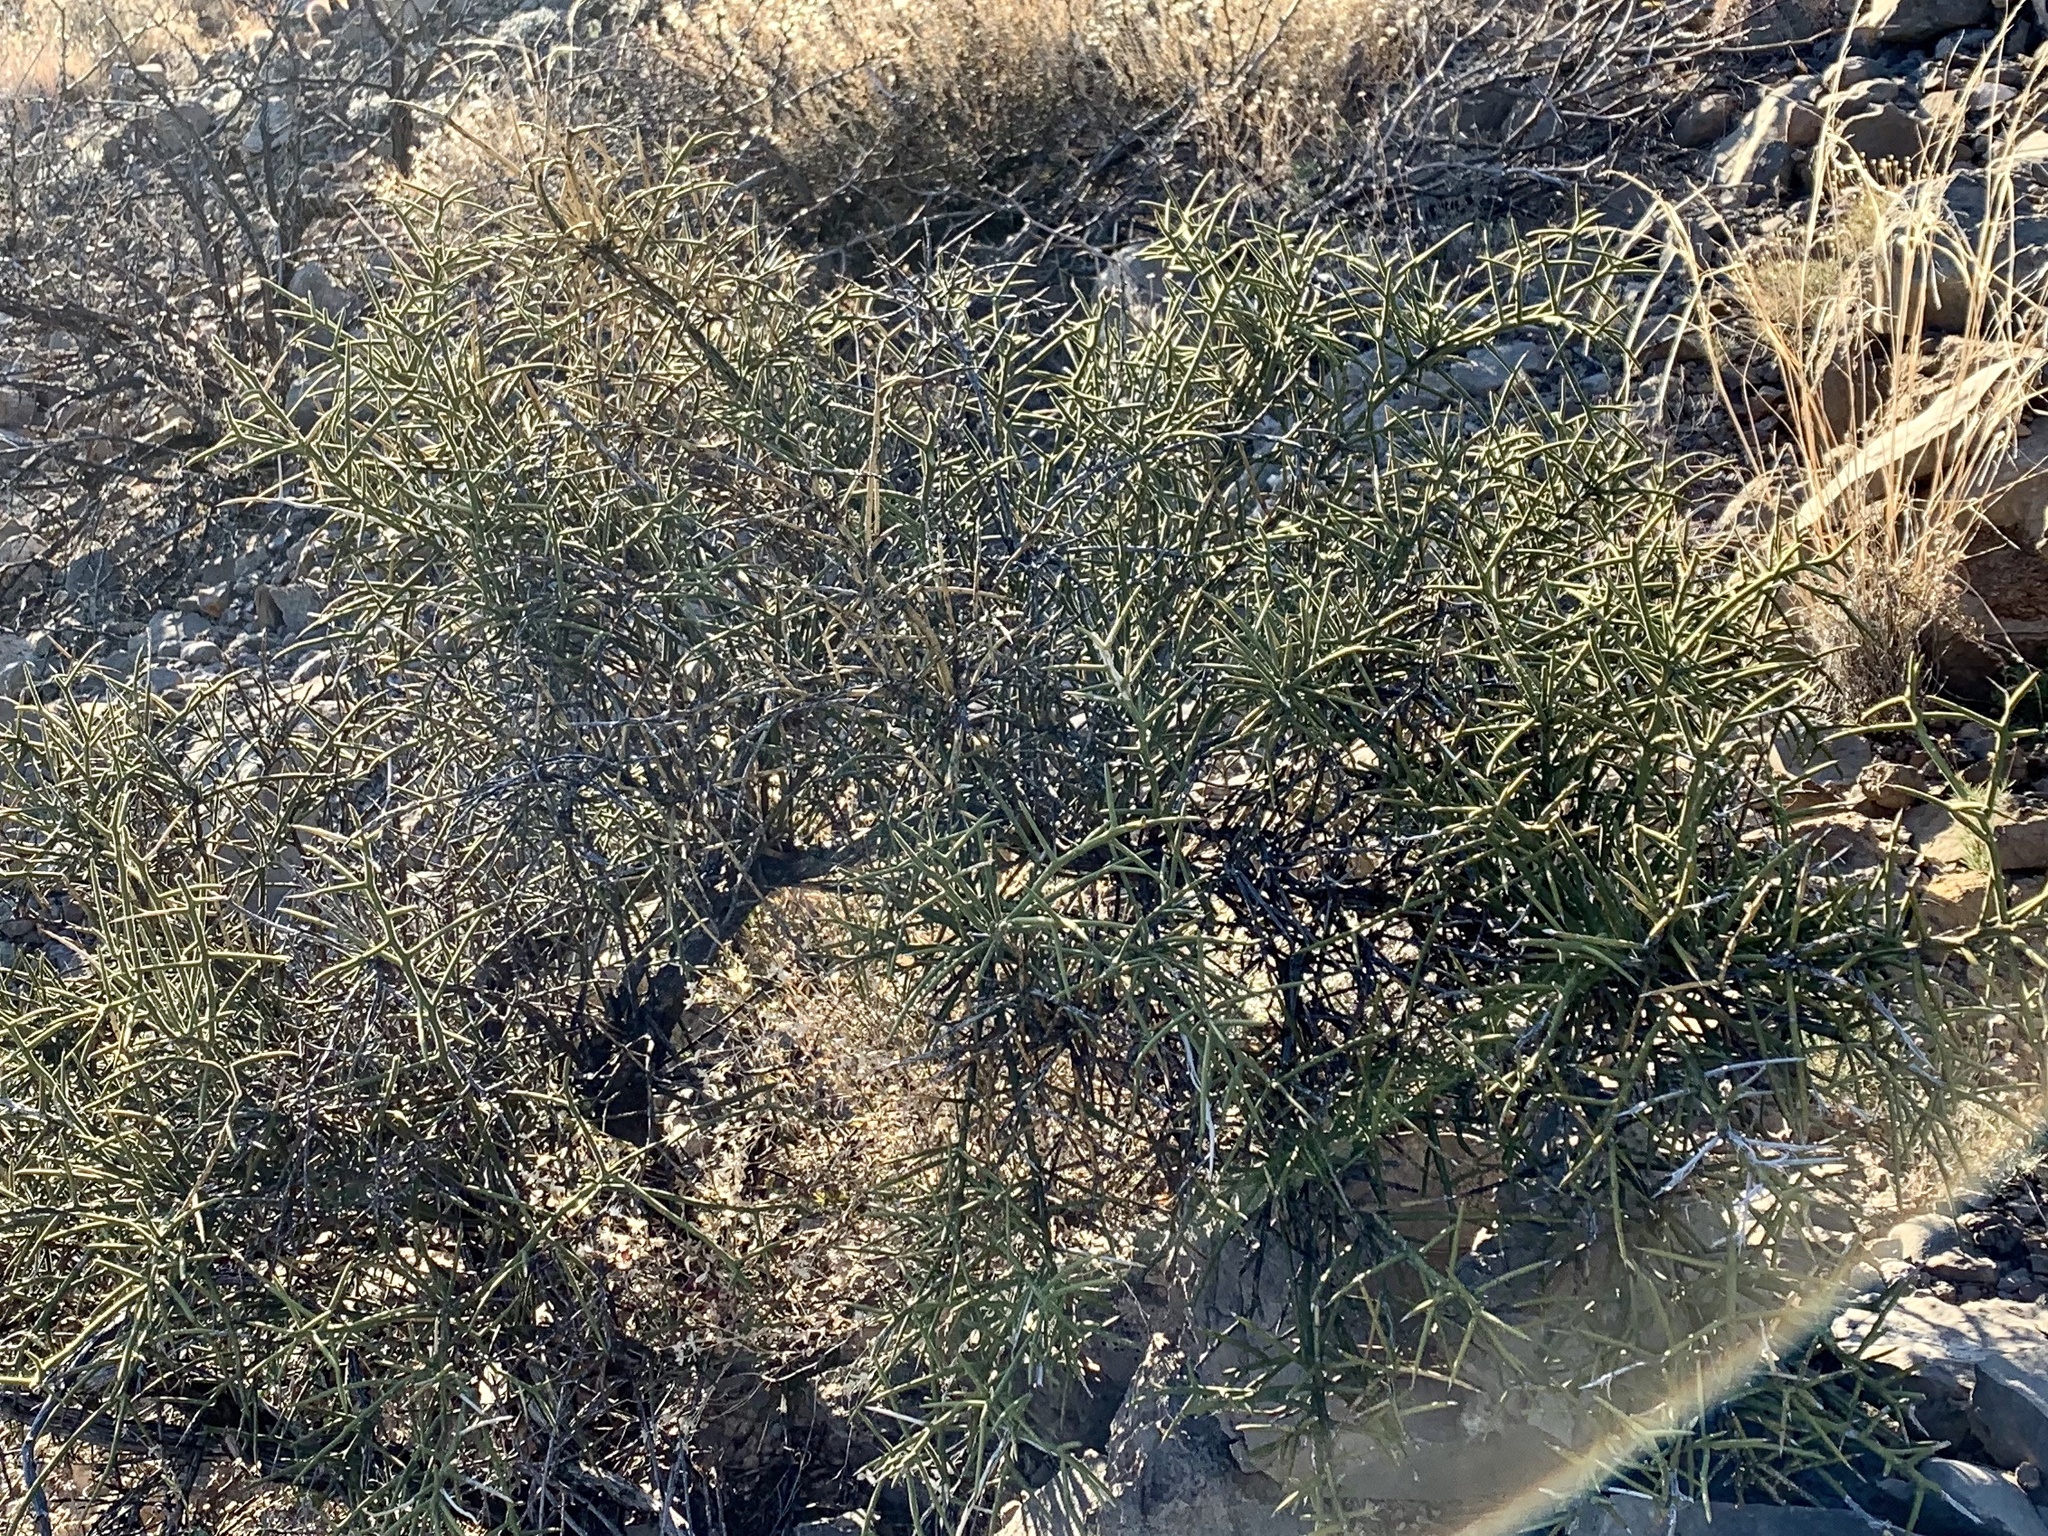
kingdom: Plantae
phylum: Tracheophyta
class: Magnoliopsida
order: Brassicales
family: Koeberliniaceae
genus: Koeberlinia
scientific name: Koeberlinia spinosa
